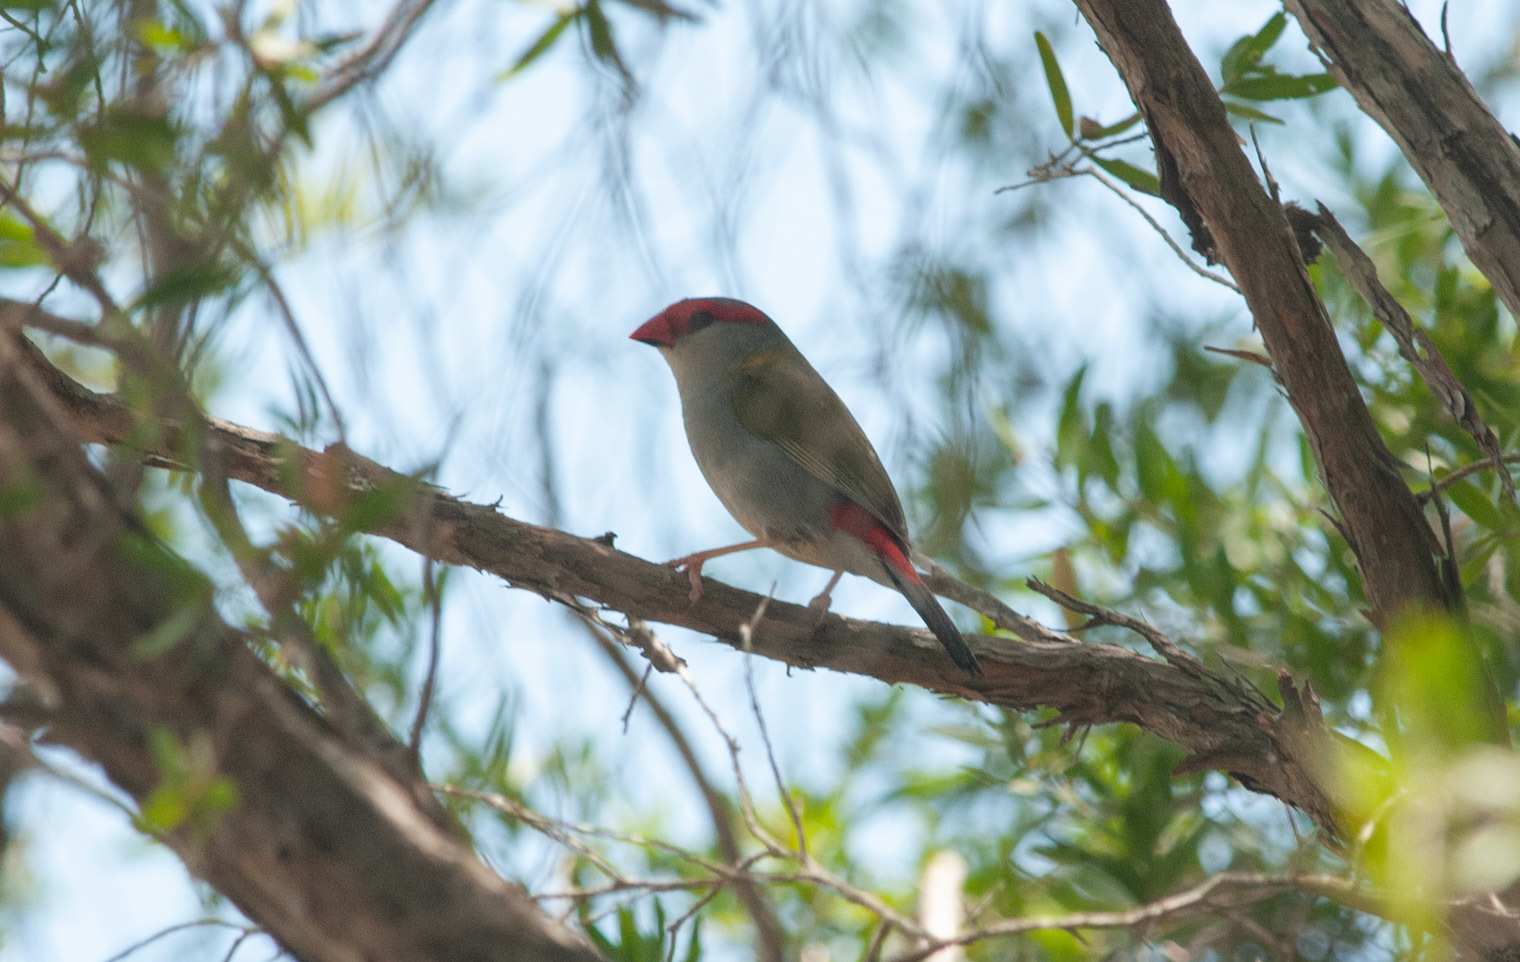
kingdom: Animalia
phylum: Chordata
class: Aves
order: Passeriformes
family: Estrildidae
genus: Neochmia
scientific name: Neochmia temporalis
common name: Red-browed finch
